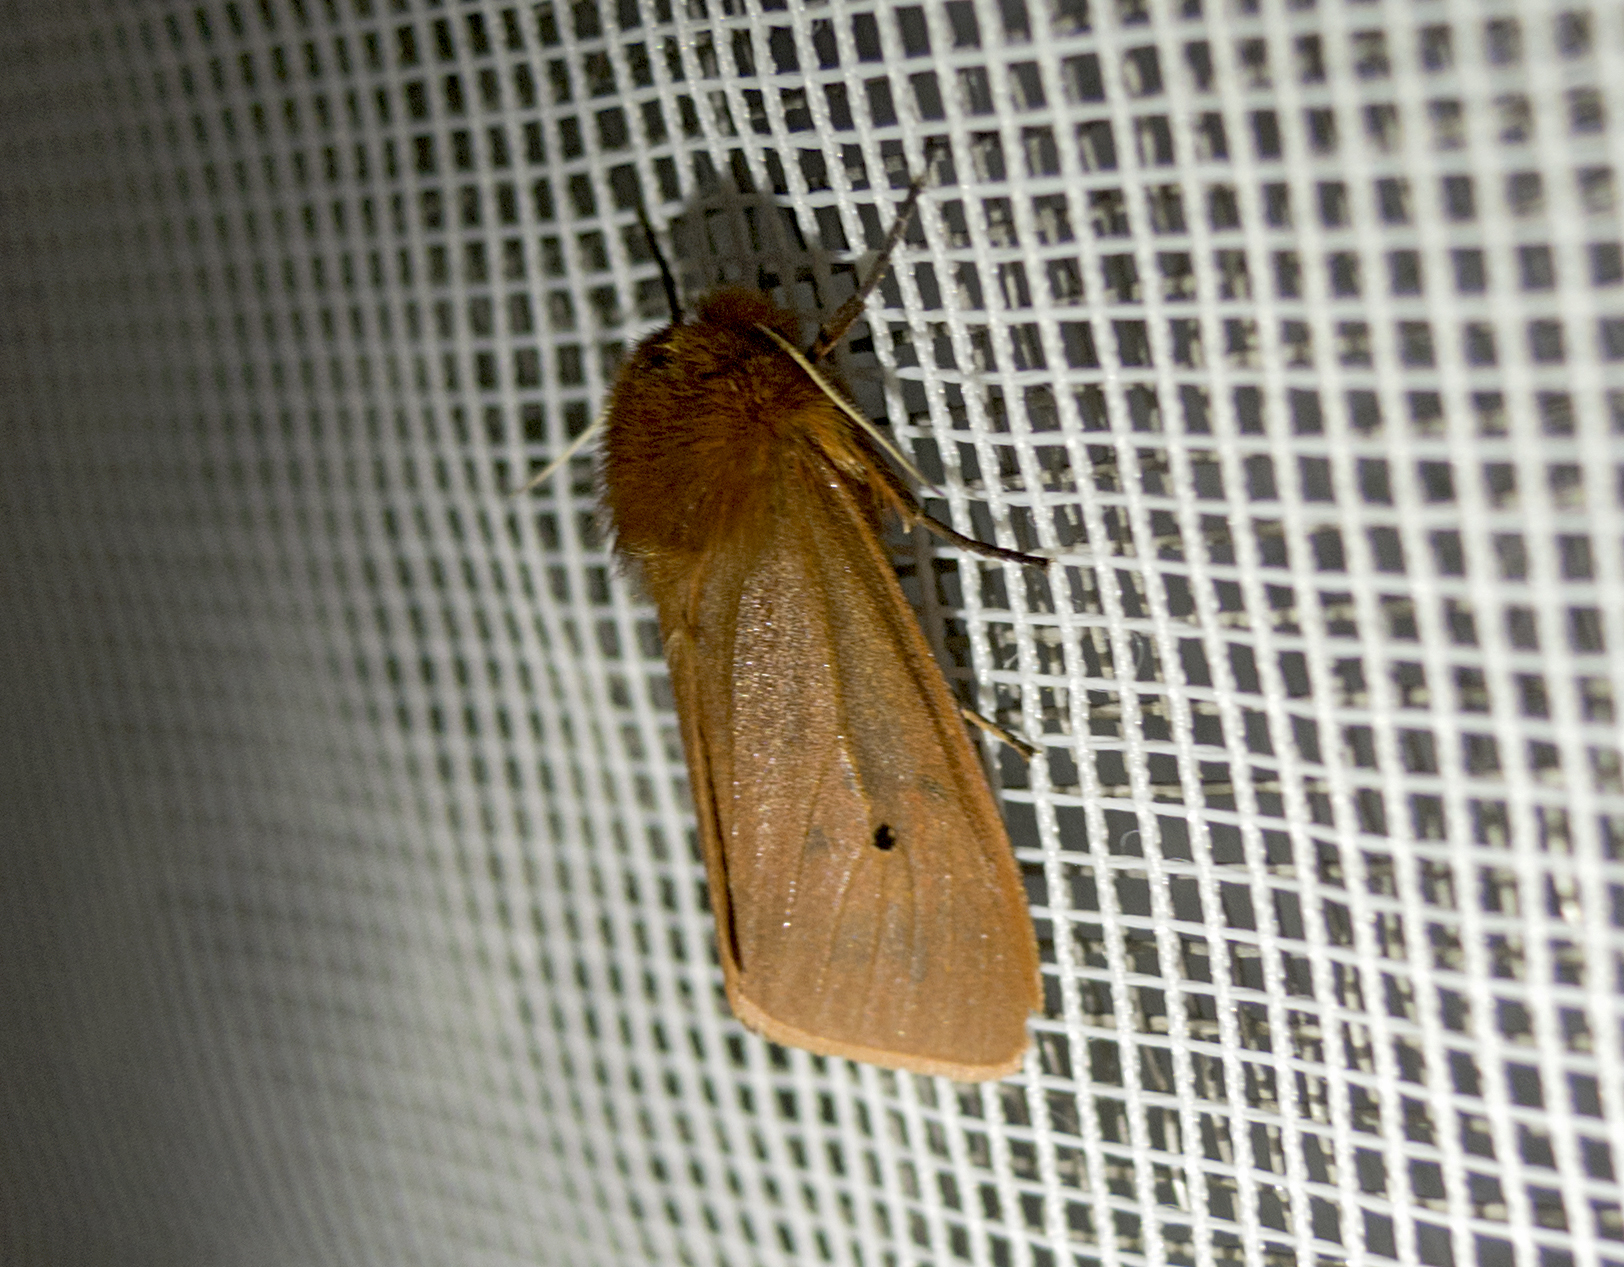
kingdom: Animalia
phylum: Arthropoda
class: Insecta
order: Lepidoptera
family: Erebidae
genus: Phragmatobia
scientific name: Phragmatobia fuliginosa
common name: Ruby tiger
